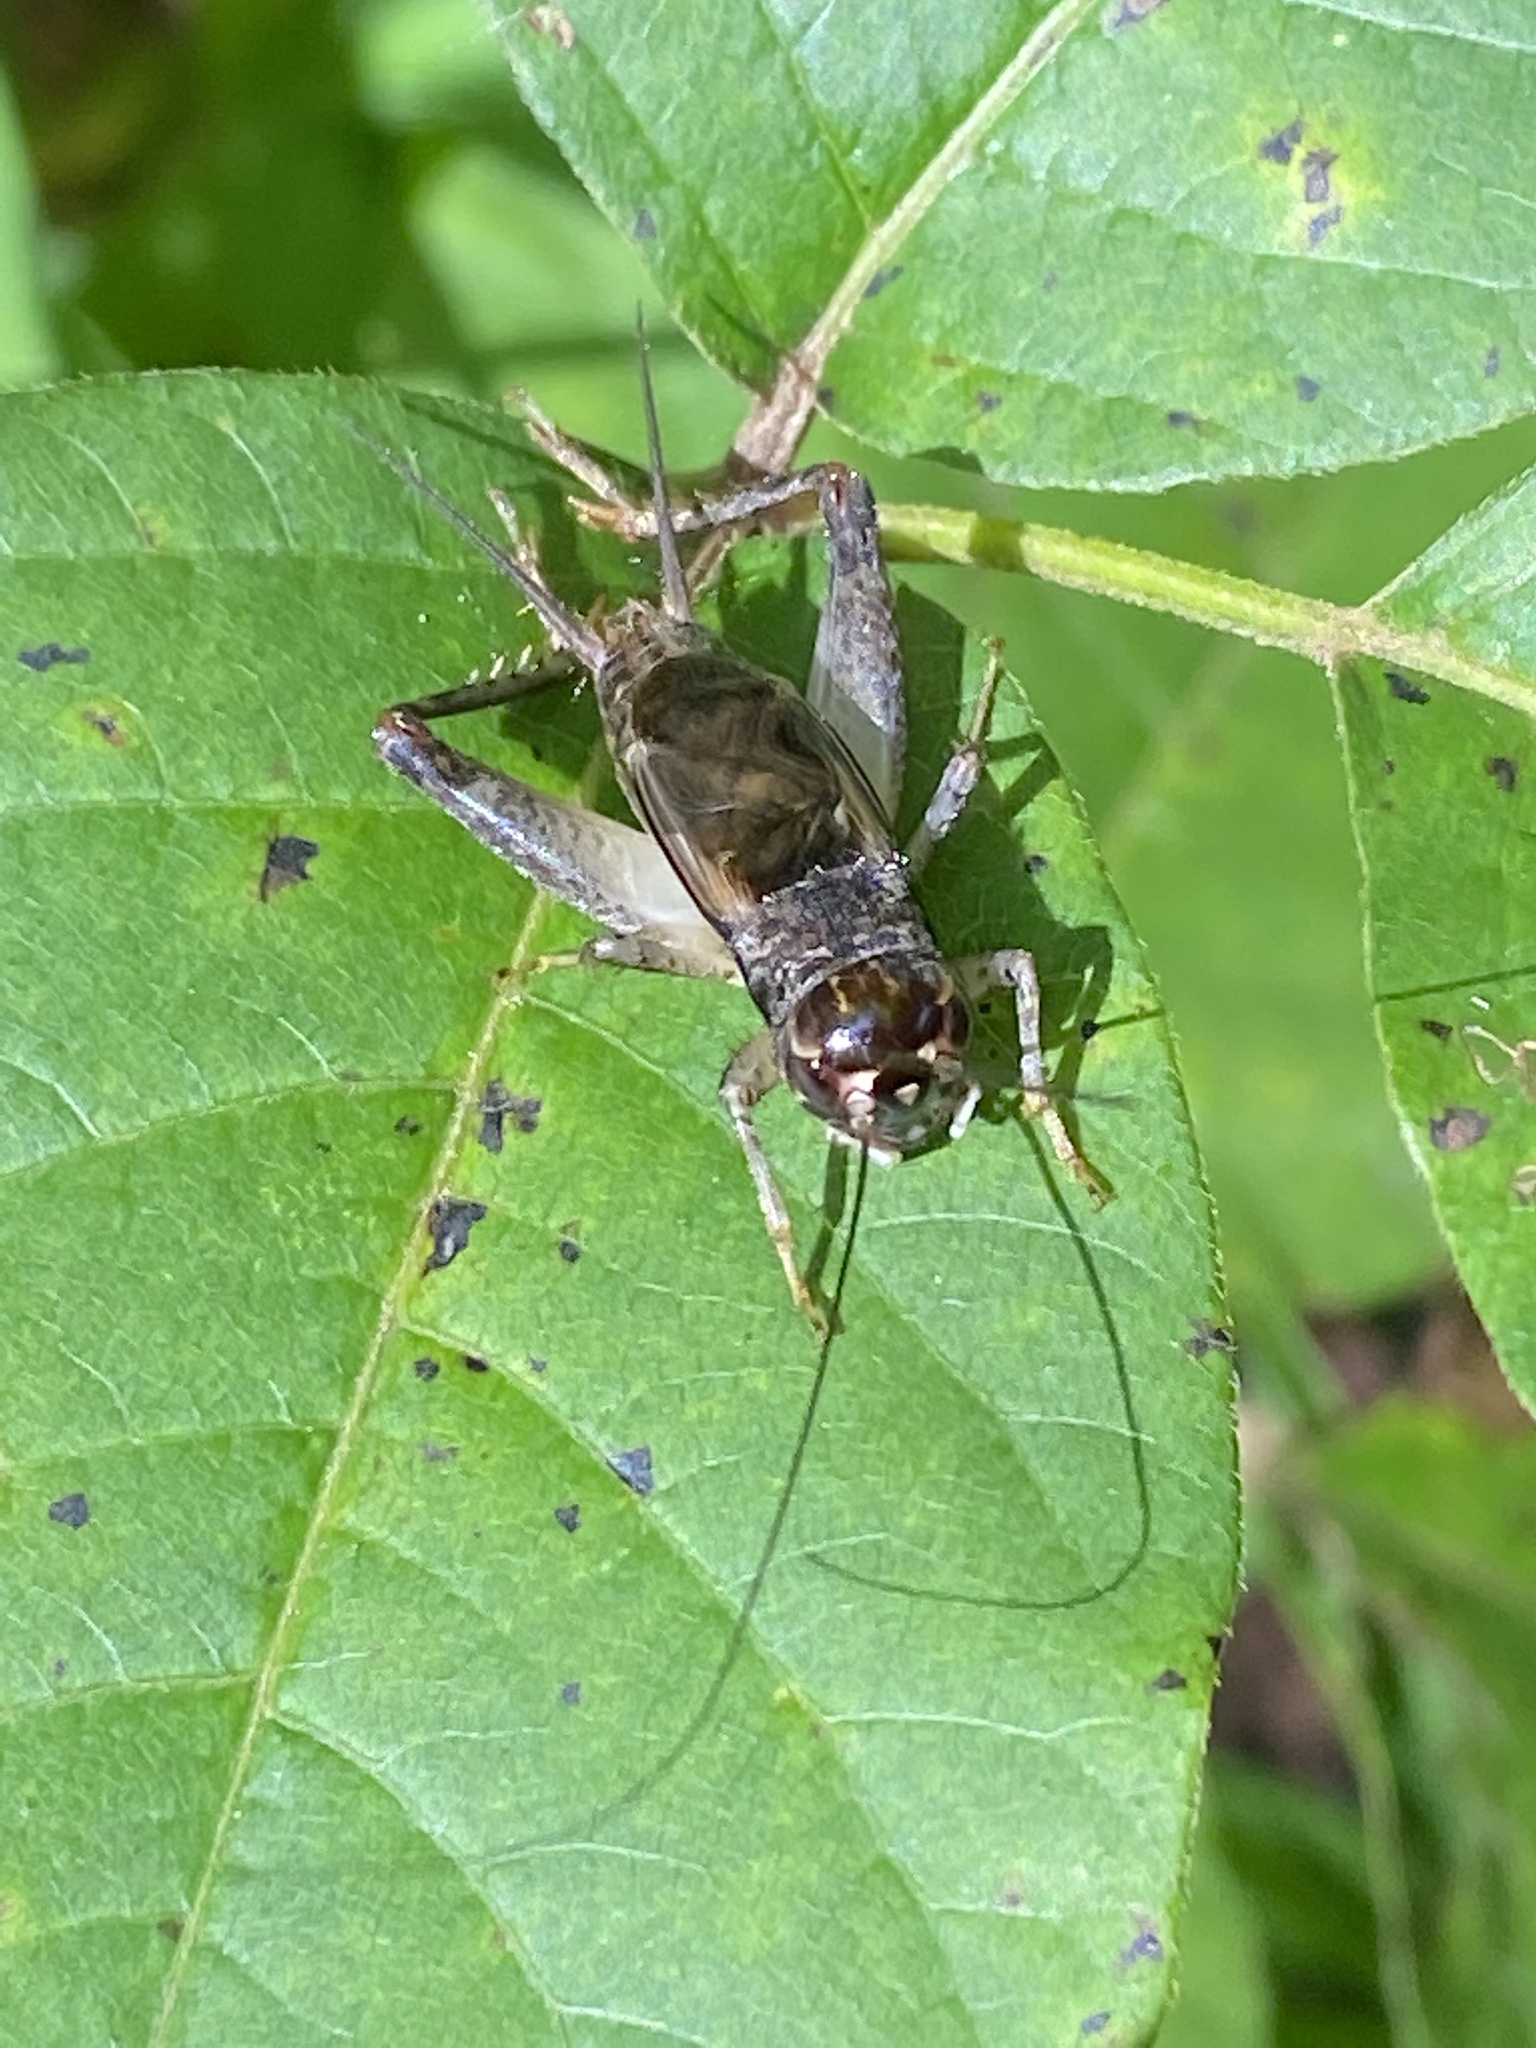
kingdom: Animalia
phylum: Arthropoda
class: Insecta
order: Orthoptera
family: Gryllidae
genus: Velarifictorus
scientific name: Velarifictorus micado
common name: Japanese burrowing cricket
